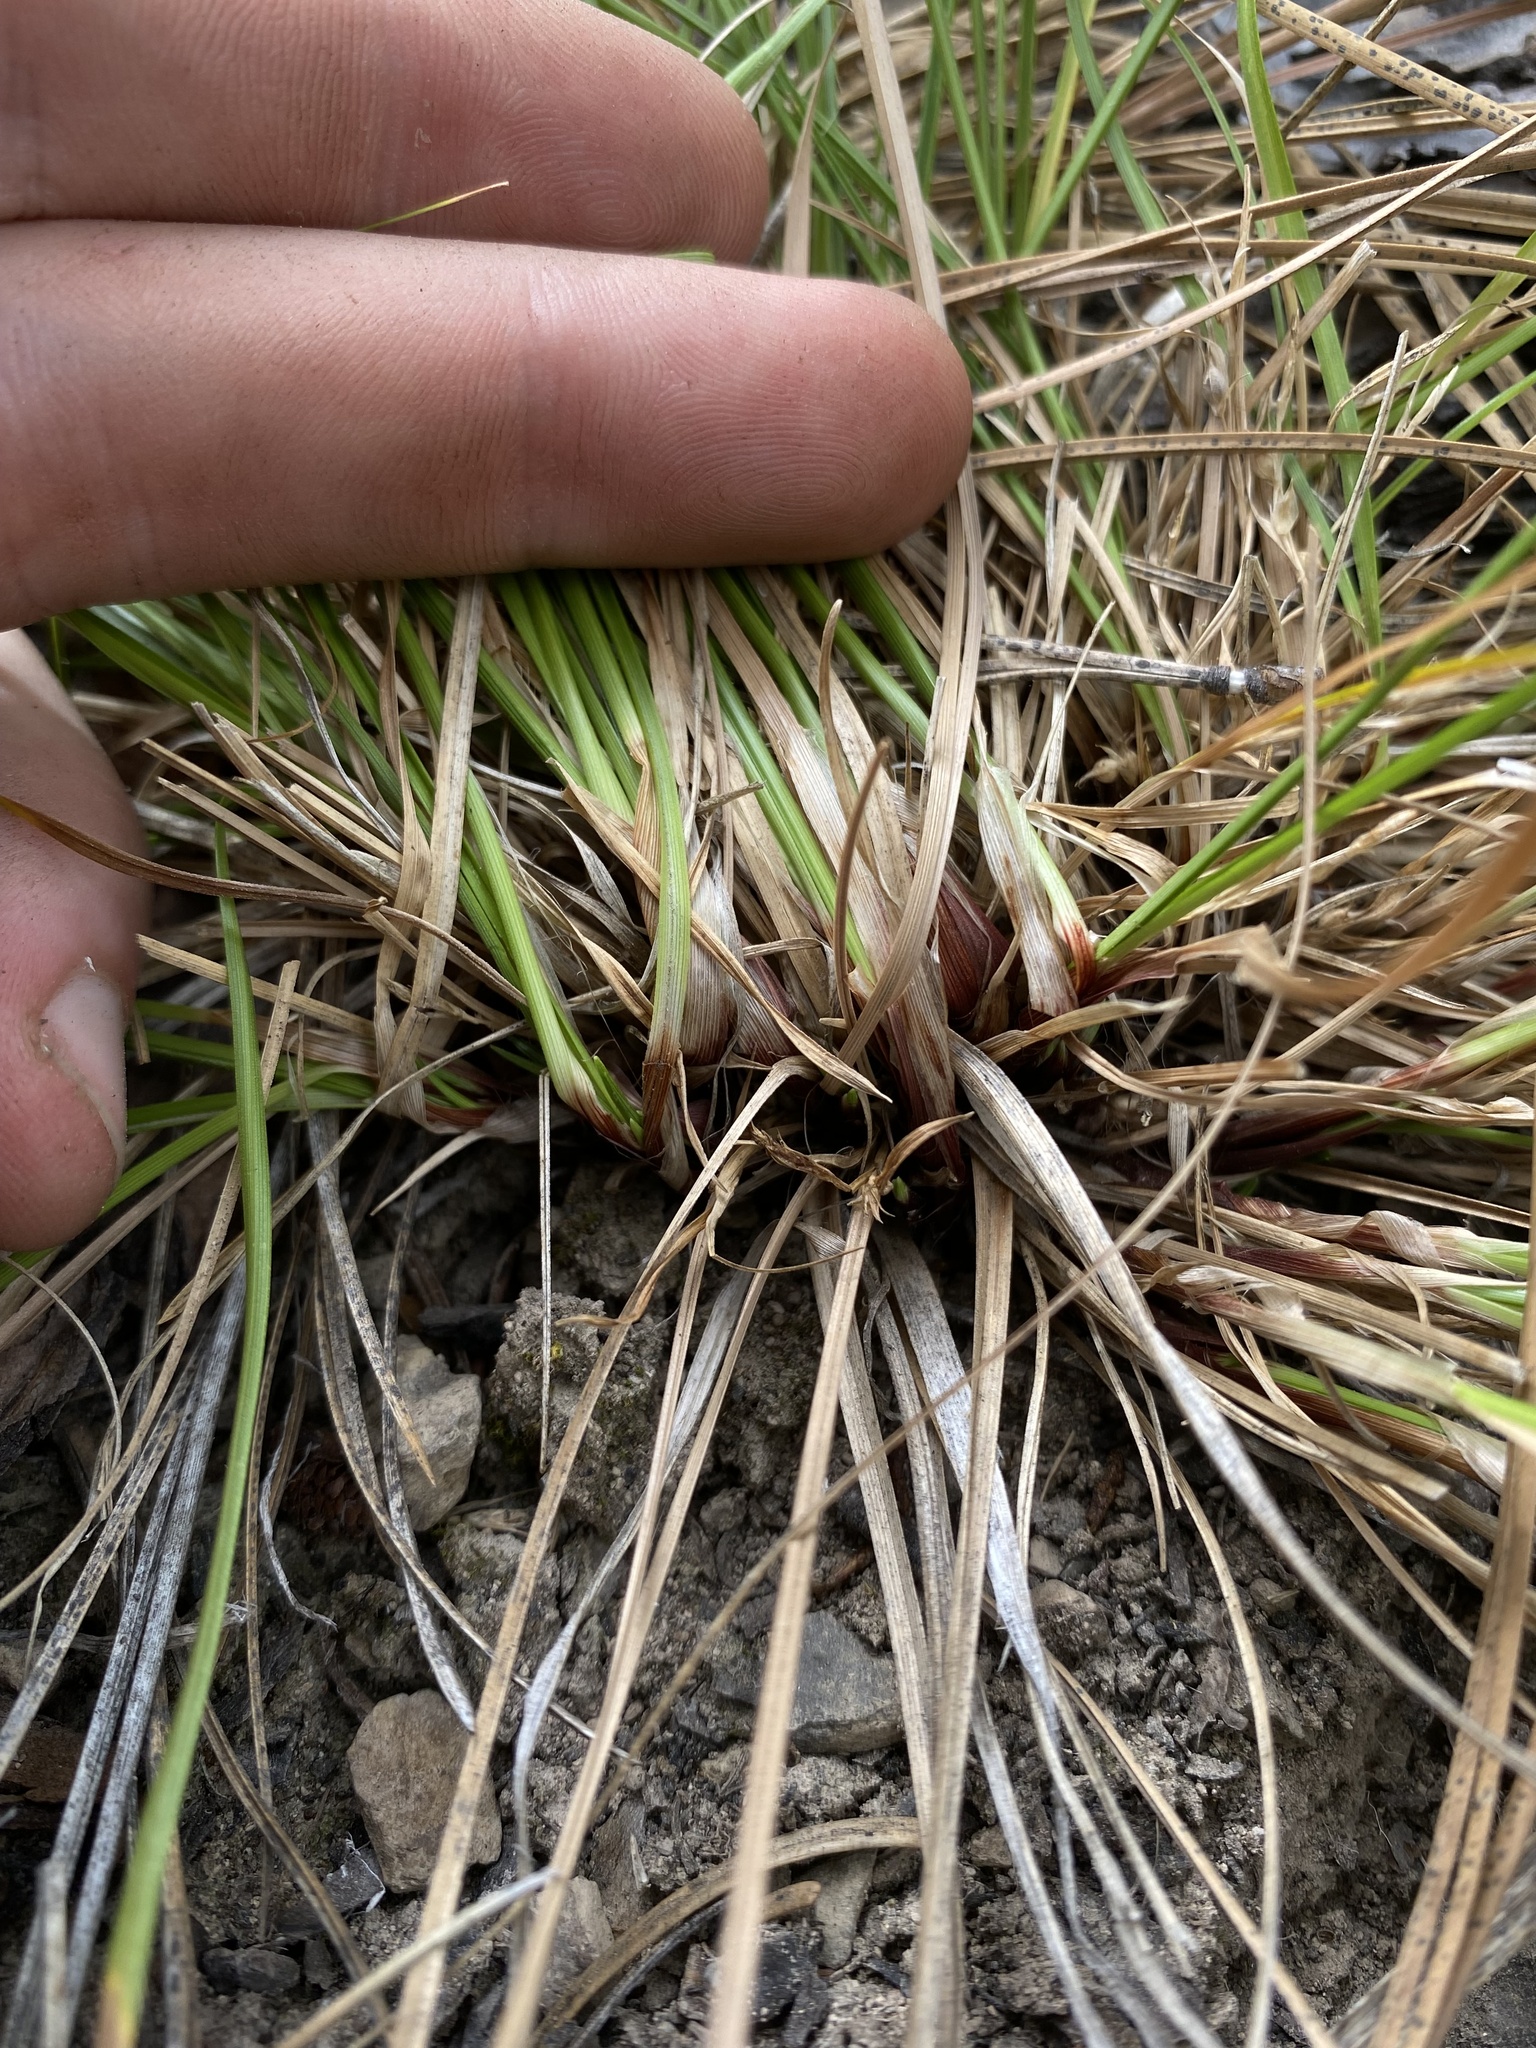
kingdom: Plantae
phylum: Tracheophyta
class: Liliopsida
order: Poales
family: Cyperaceae
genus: Carex
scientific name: Carex rossii
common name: Ross' sedge
